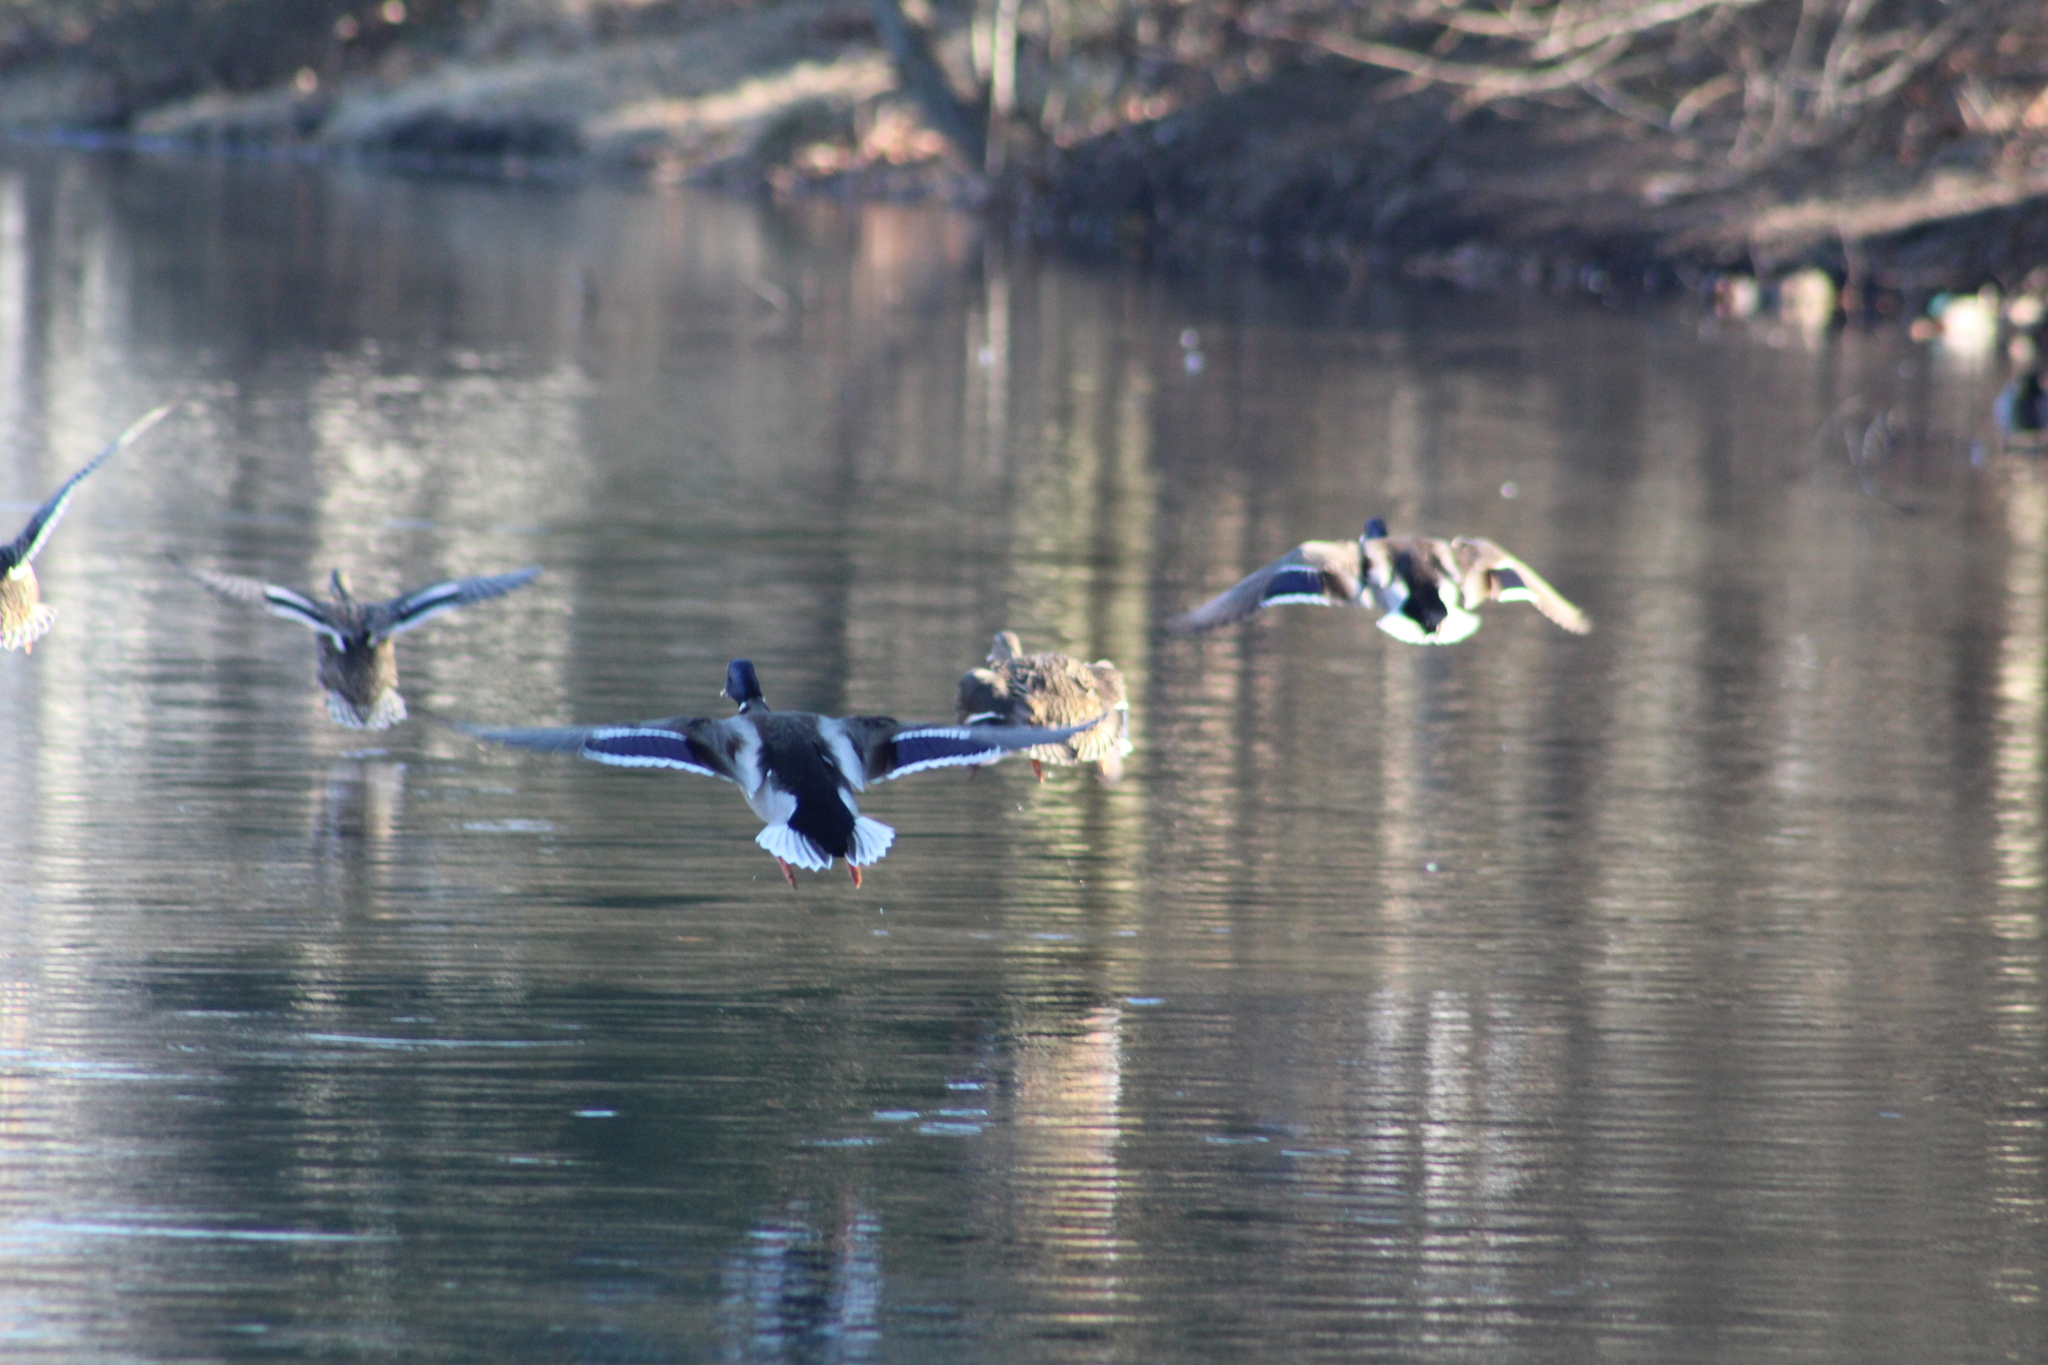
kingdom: Animalia
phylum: Chordata
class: Aves
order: Anseriformes
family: Anatidae
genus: Anas
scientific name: Anas platyrhynchos
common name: Mallard
